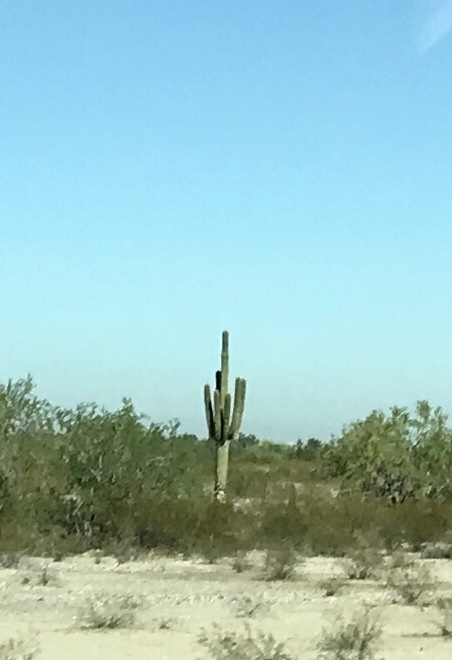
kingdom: Plantae
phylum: Tracheophyta
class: Magnoliopsida
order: Caryophyllales
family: Cactaceae
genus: Carnegiea
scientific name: Carnegiea gigantea
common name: Saguaro
